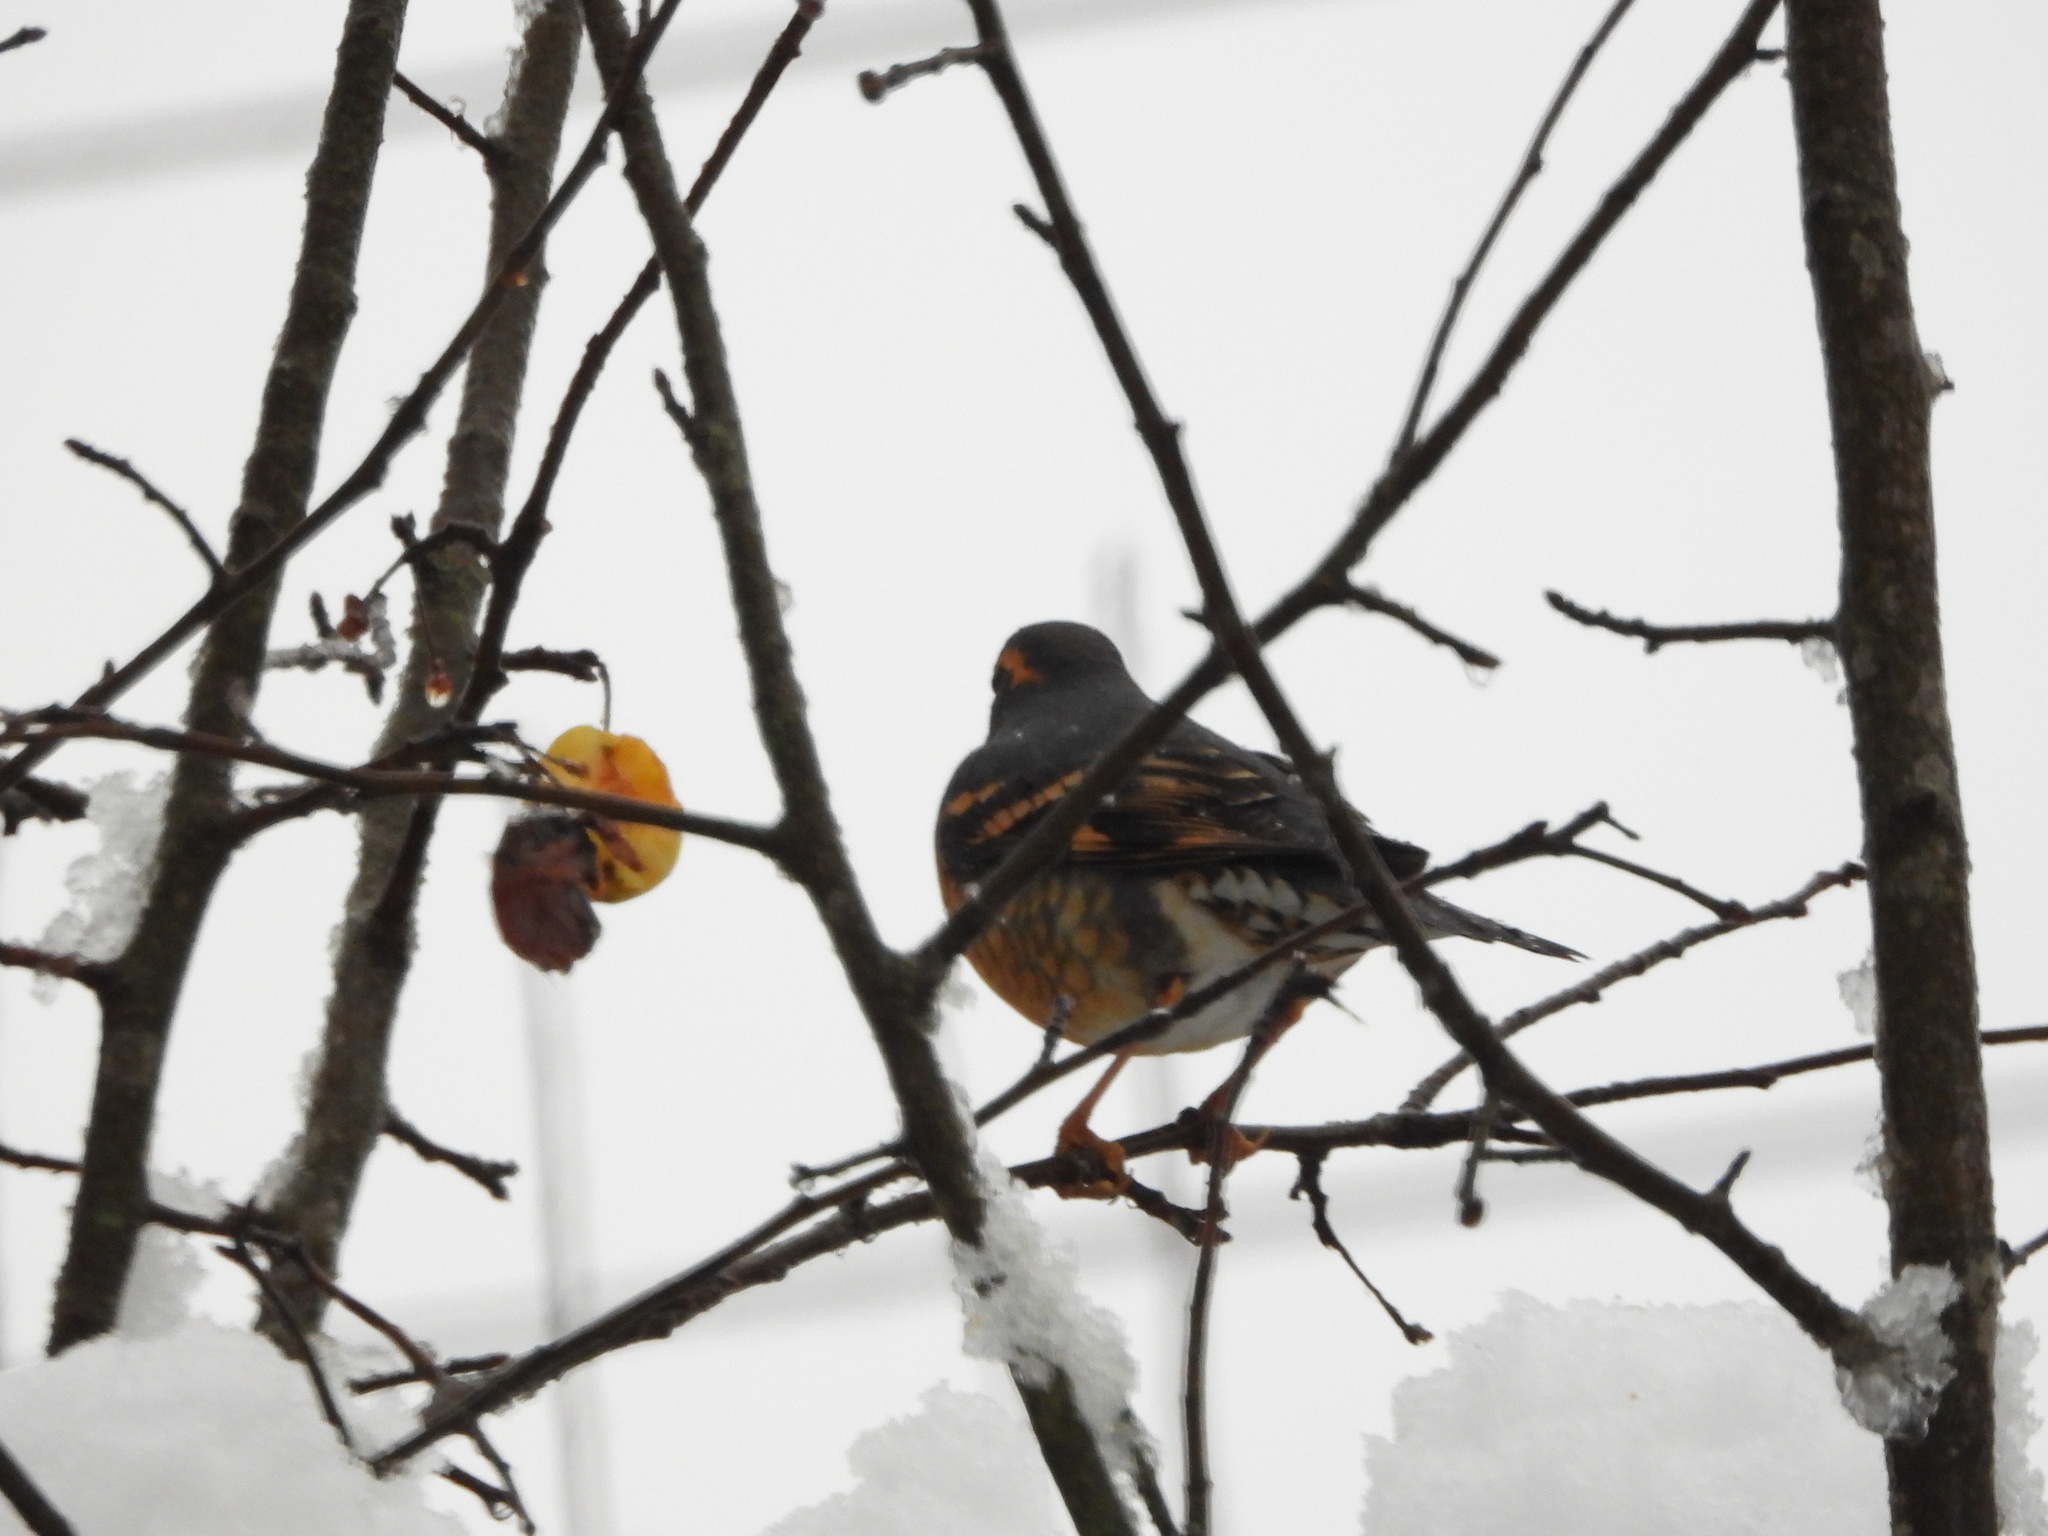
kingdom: Animalia
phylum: Chordata
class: Aves
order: Passeriformes
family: Turdidae
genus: Ixoreus
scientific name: Ixoreus naevius
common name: Varied thrush
